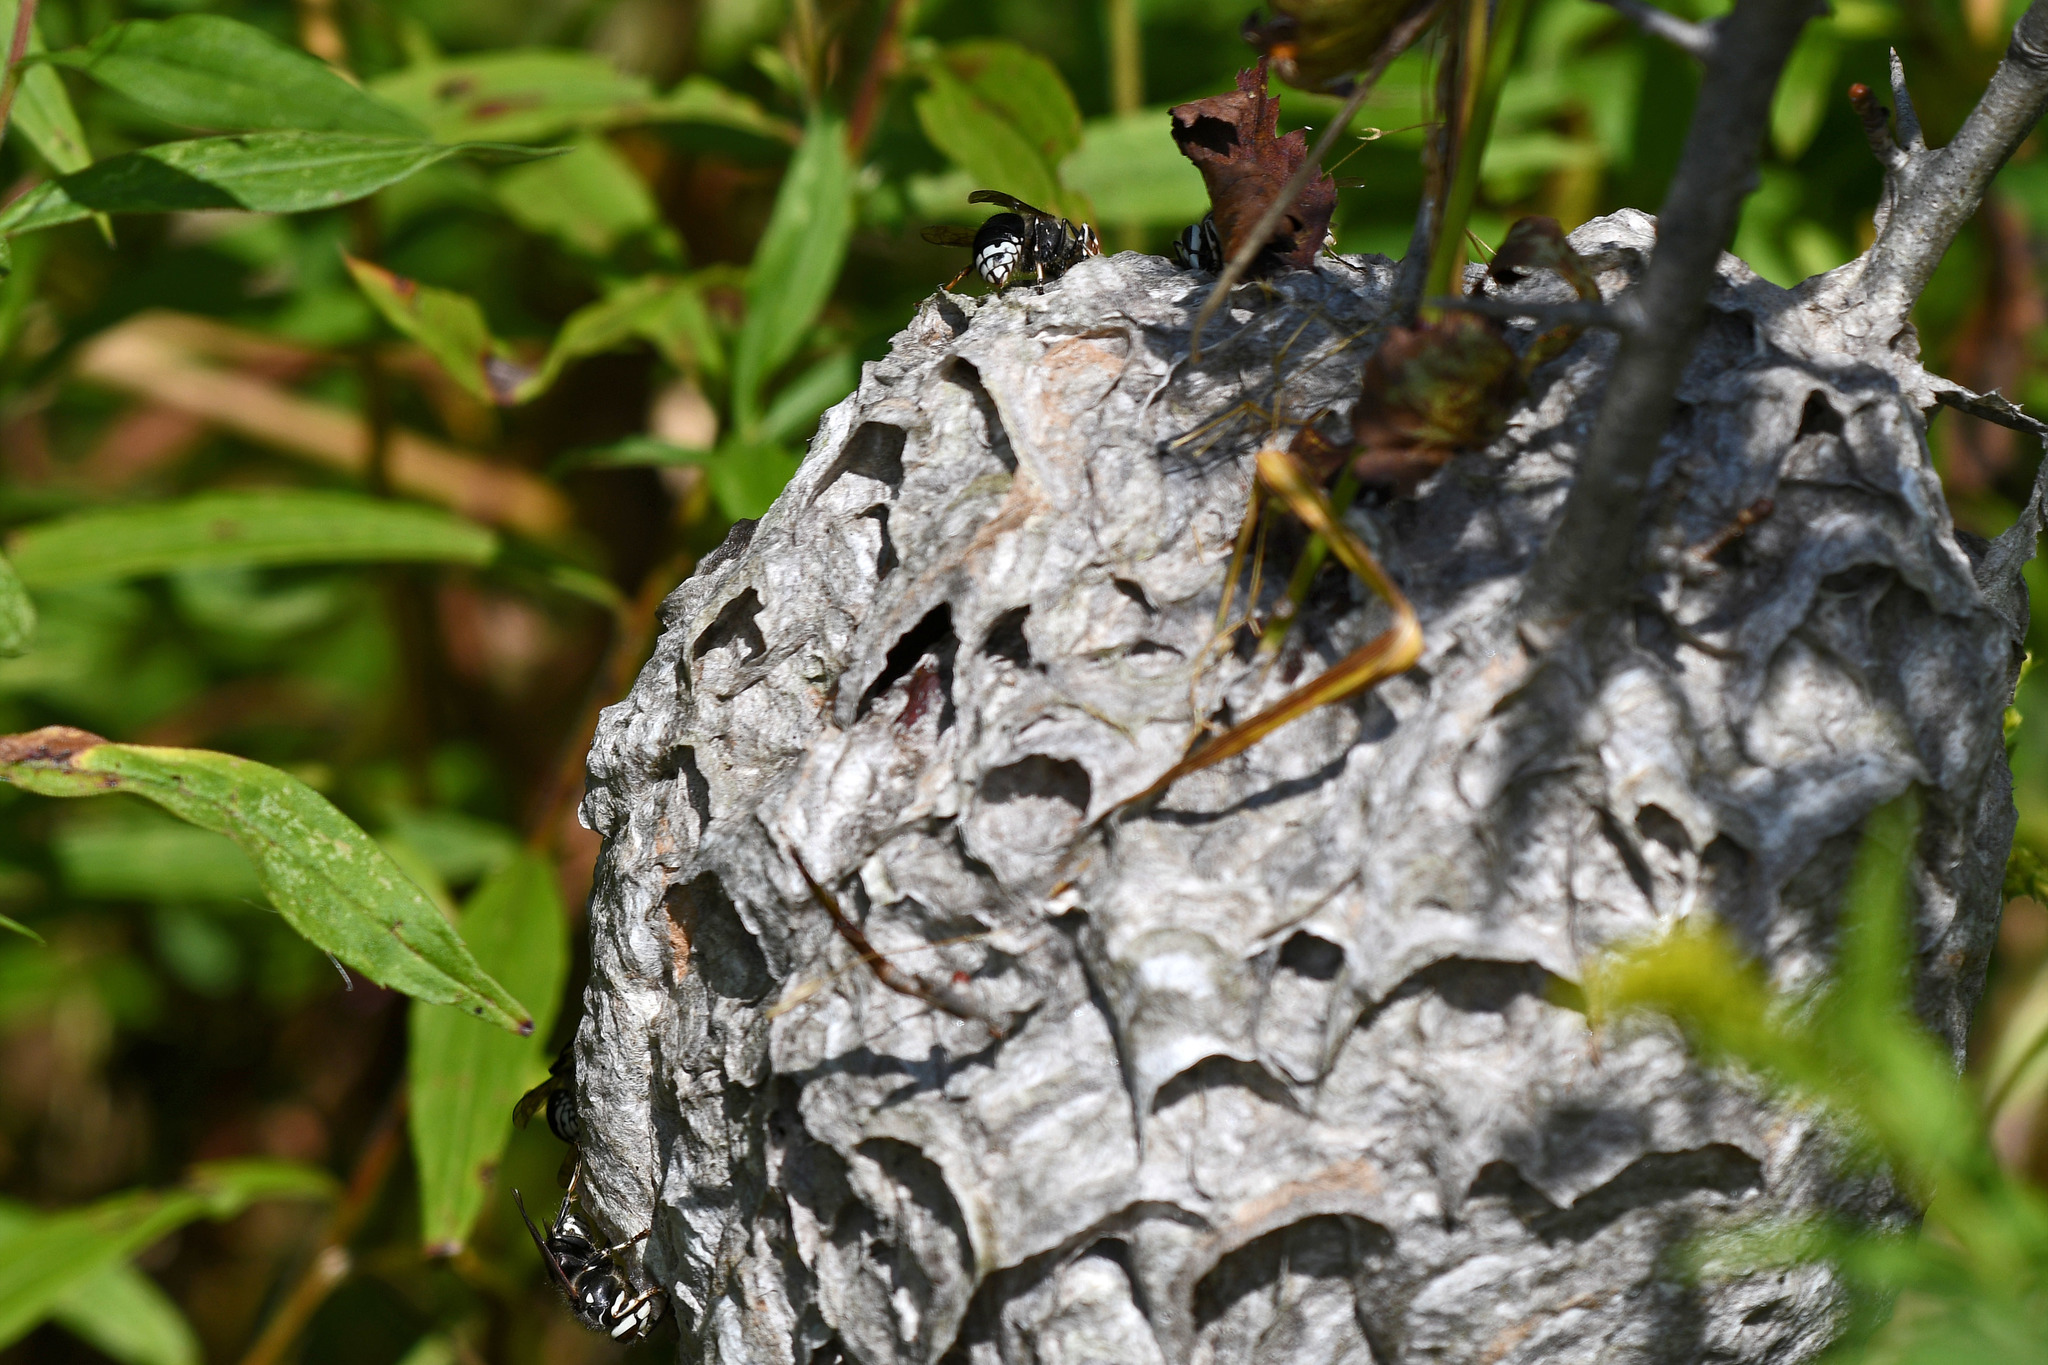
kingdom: Animalia
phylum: Arthropoda
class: Insecta
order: Hymenoptera
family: Vespidae
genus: Dolichovespula
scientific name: Dolichovespula maculata
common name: Bald-faced hornet
